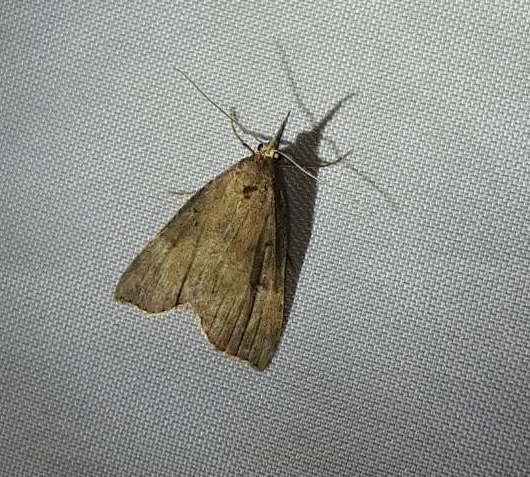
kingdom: Animalia
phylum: Arthropoda
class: Insecta
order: Lepidoptera
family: Erebidae
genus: Hypena
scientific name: Hypena rostralis
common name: Buttoned snout
